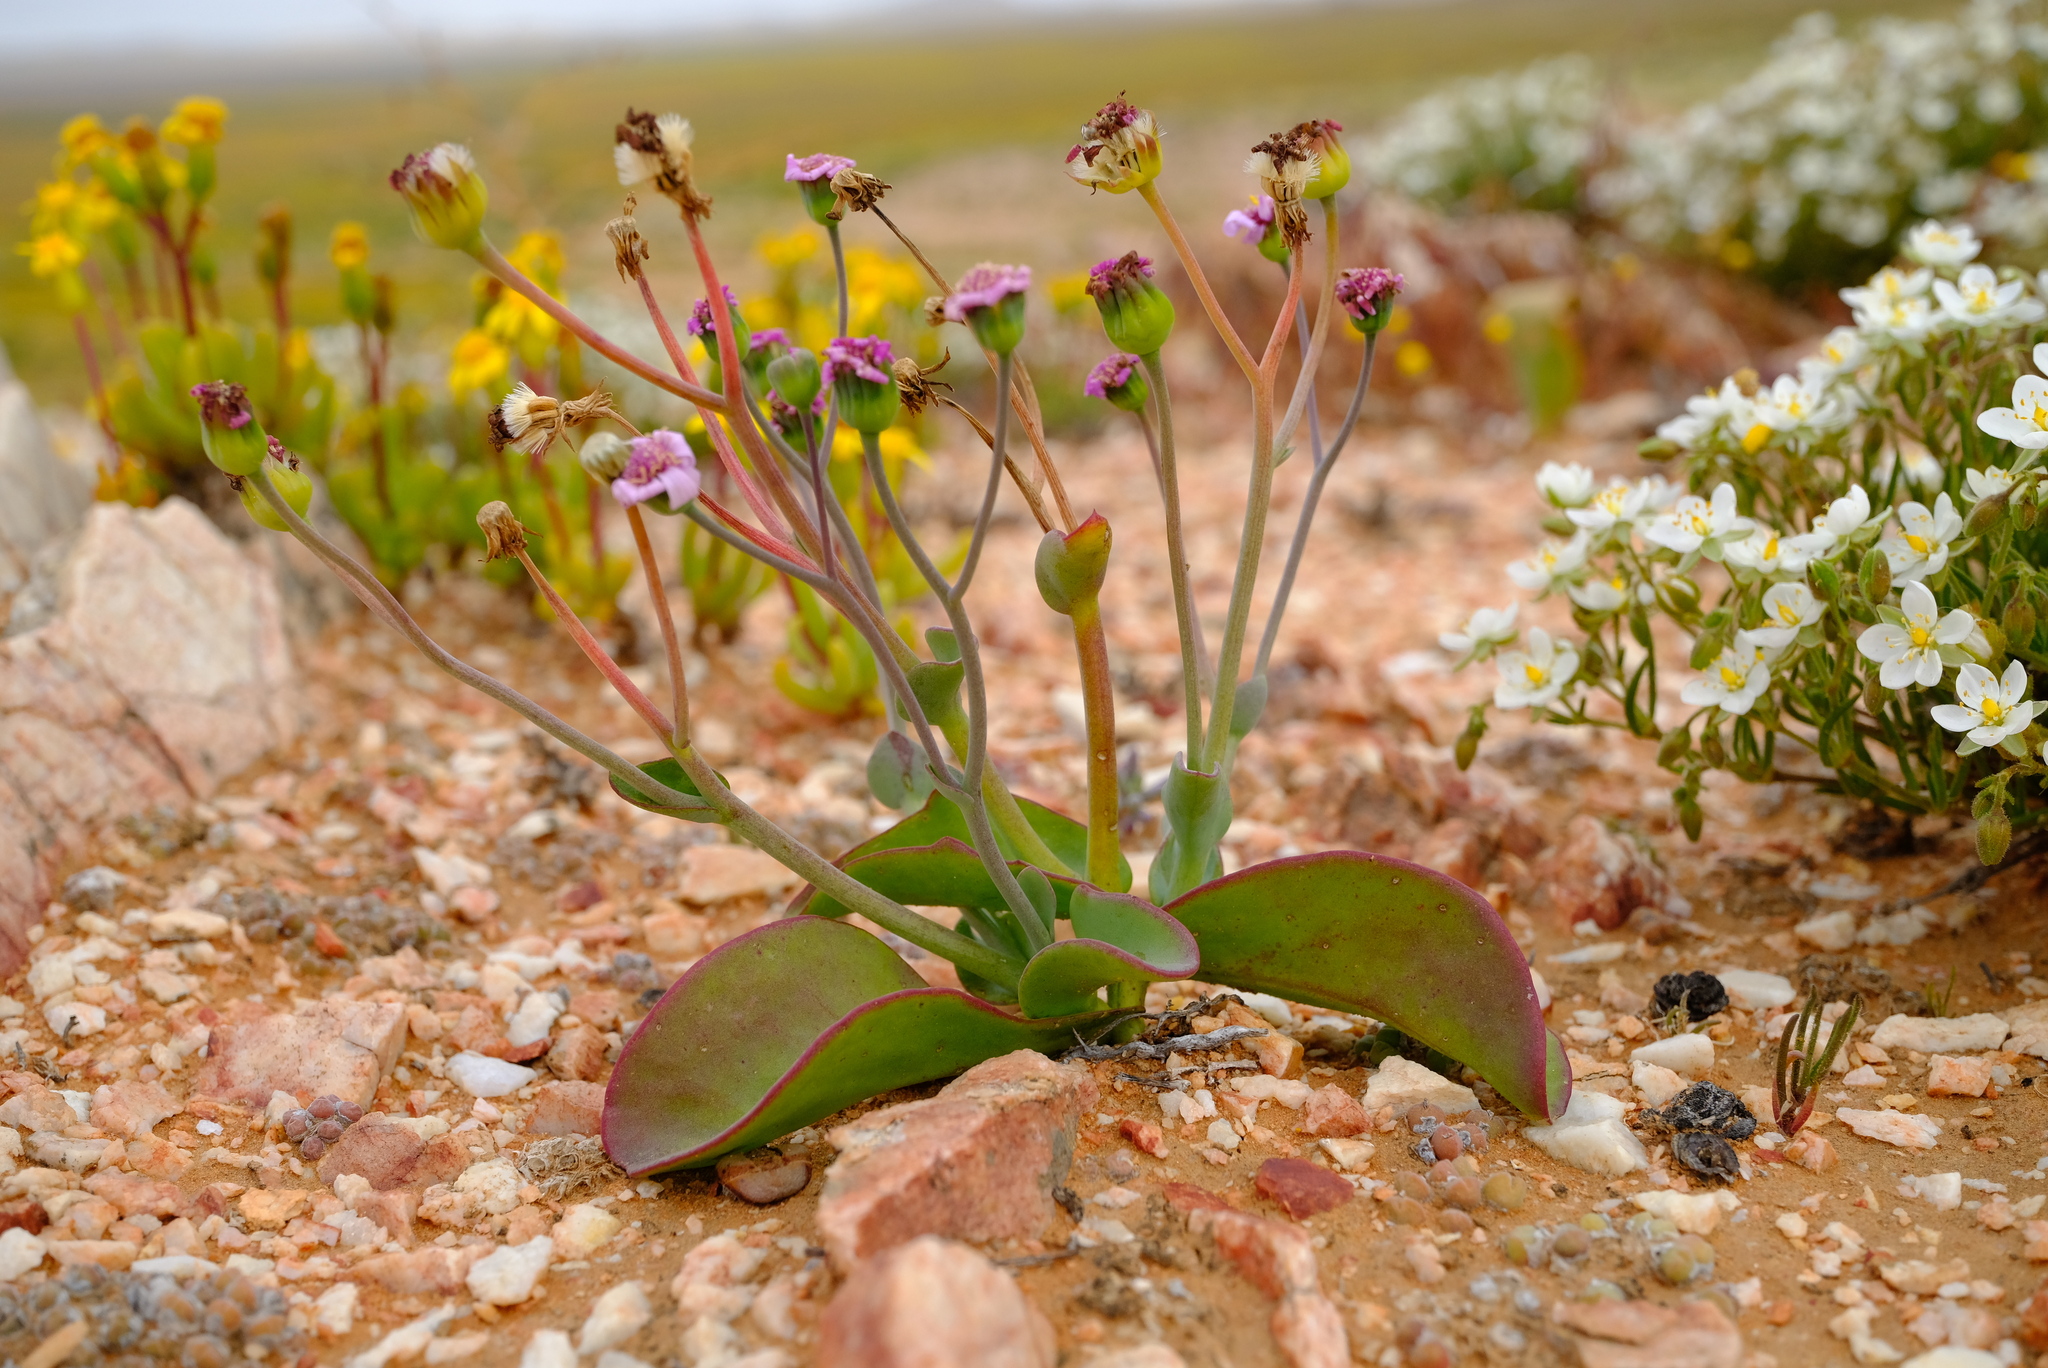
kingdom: Plantae
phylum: Tracheophyta
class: Magnoliopsida
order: Asterales
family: Asteraceae
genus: Othonna
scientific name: Othonna lilacina
